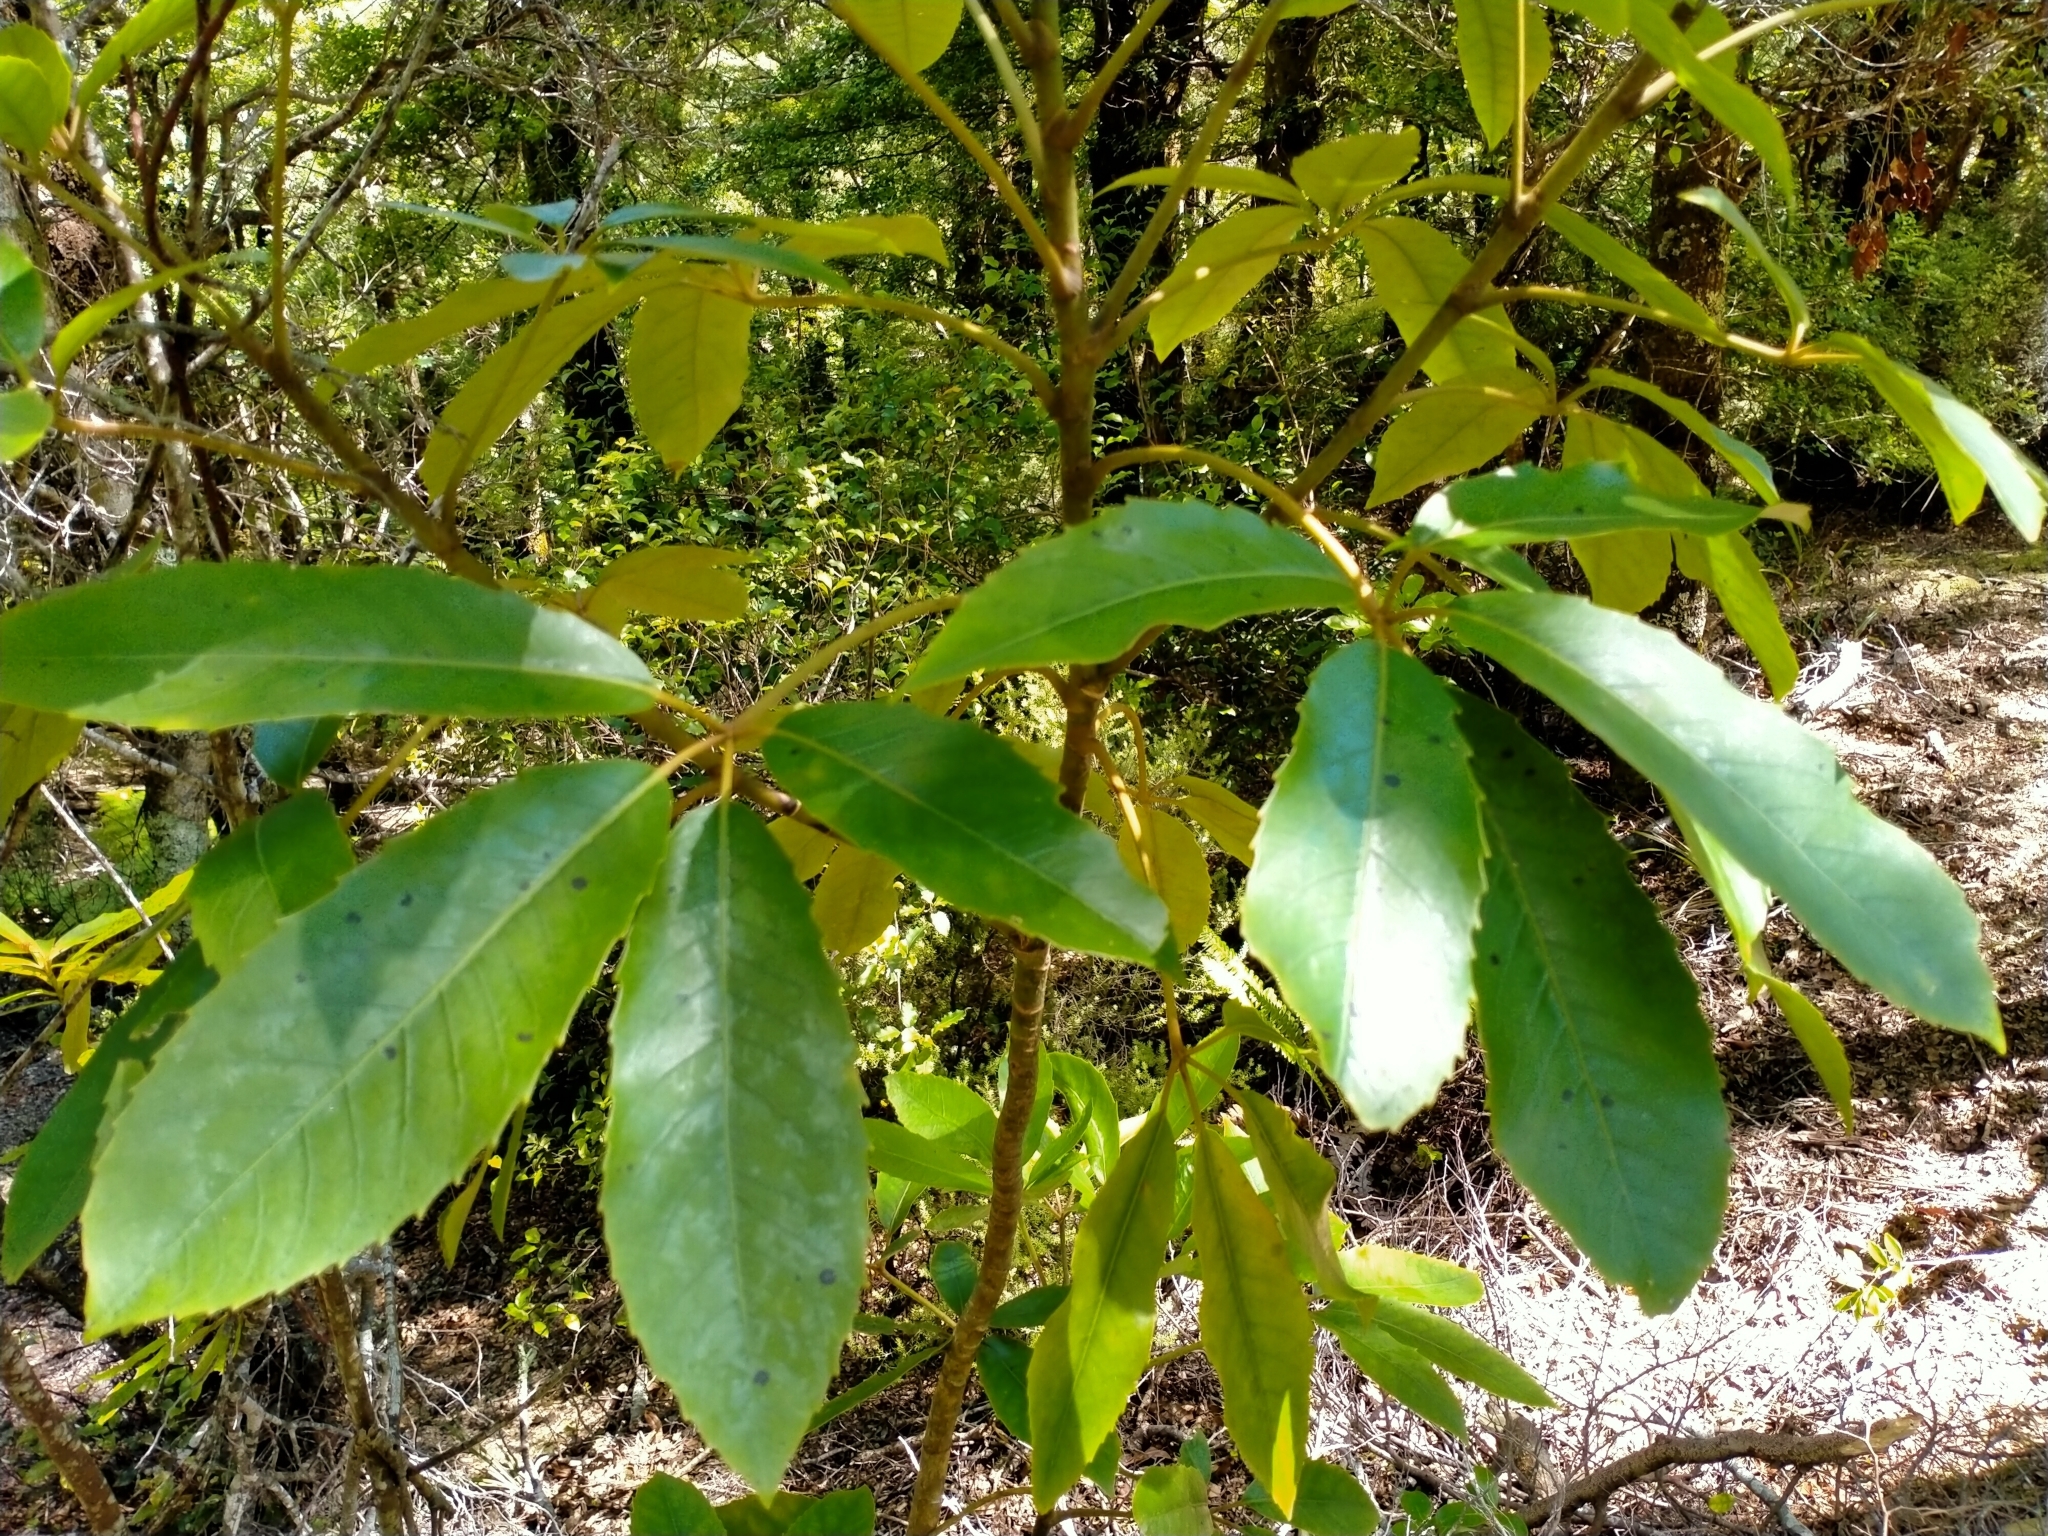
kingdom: Plantae
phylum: Tracheophyta
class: Magnoliopsida
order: Apiales
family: Araliaceae
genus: Neopanax
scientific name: Neopanax arboreus
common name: Five-fingers
